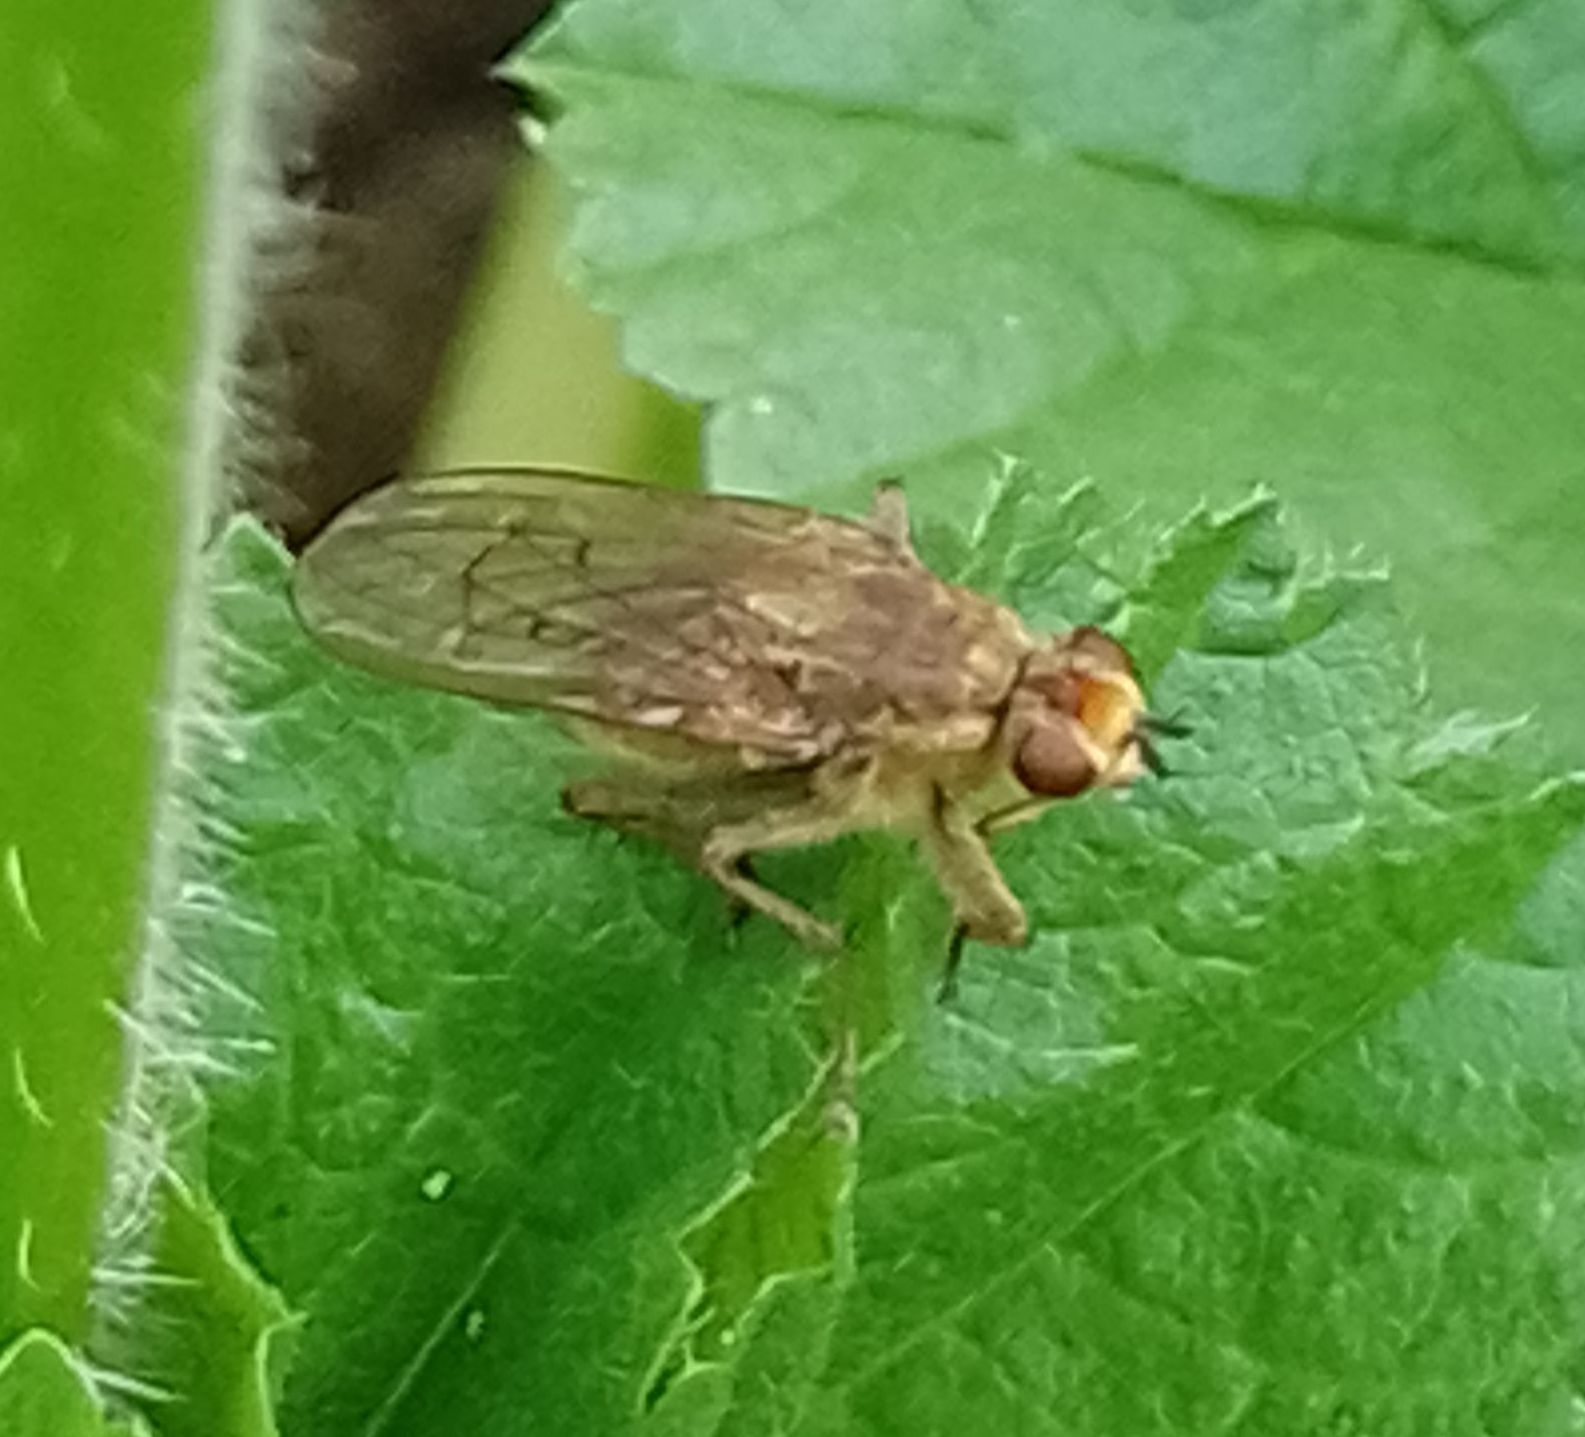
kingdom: Animalia
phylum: Arthropoda
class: Insecta
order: Diptera
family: Scathophagidae
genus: Scathophaga
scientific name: Scathophaga stercoraria
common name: Yellow dung fly
